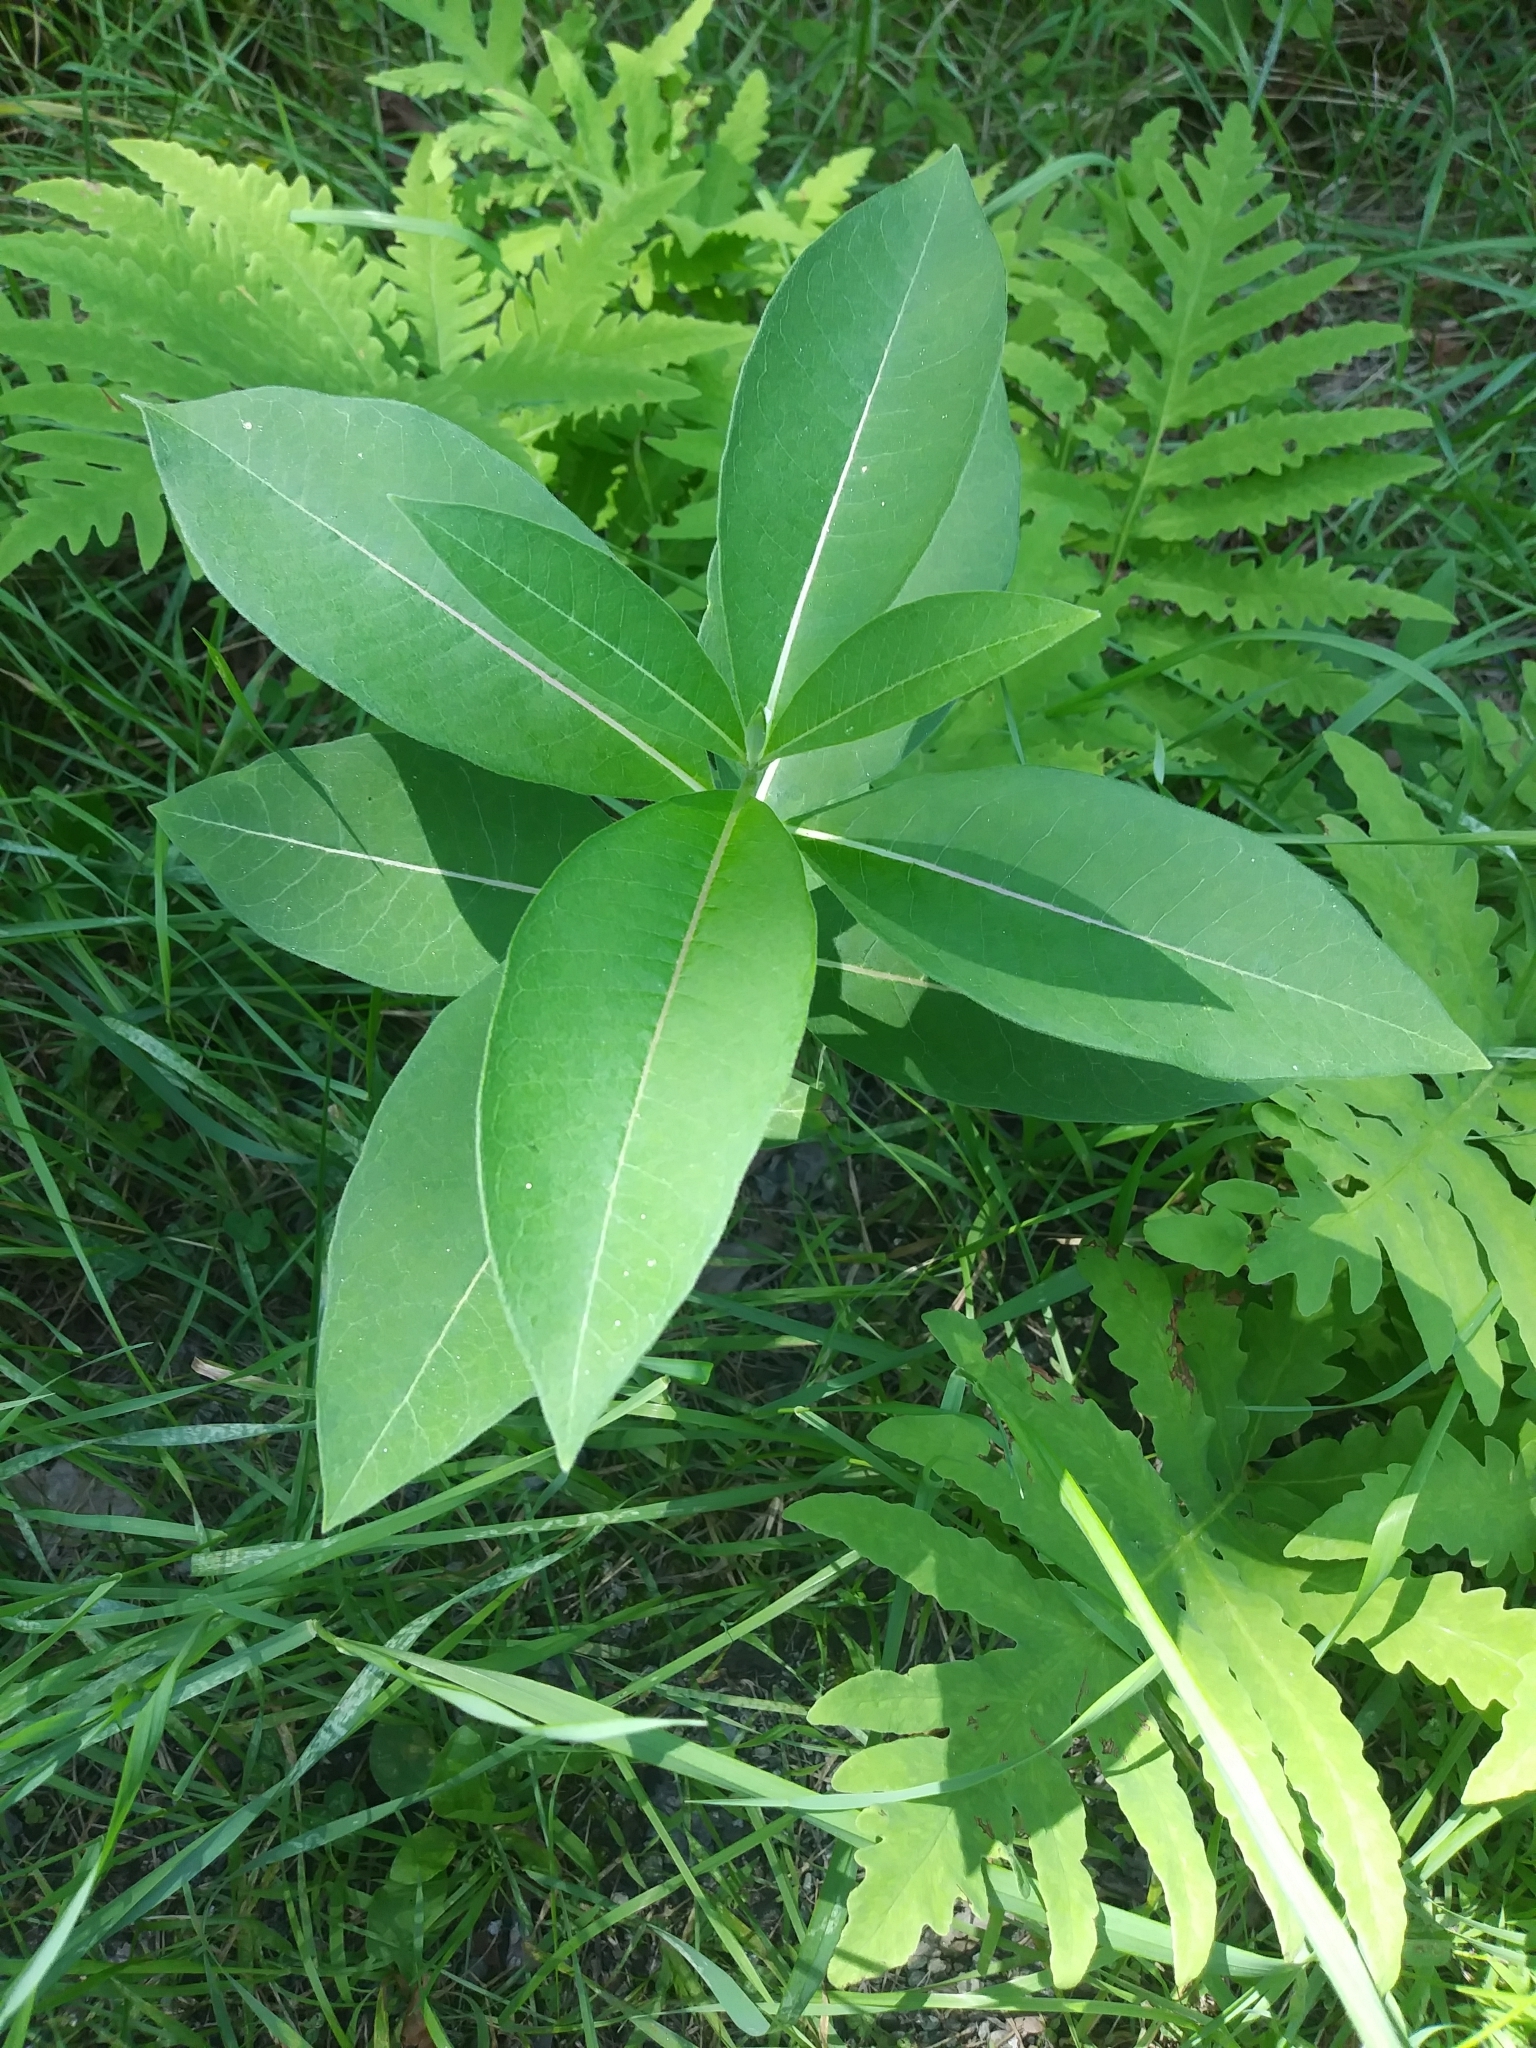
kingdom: Plantae
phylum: Tracheophyta
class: Magnoliopsida
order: Gentianales
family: Apocynaceae
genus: Asclepias
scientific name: Asclepias syriaca
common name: Common milkweed
